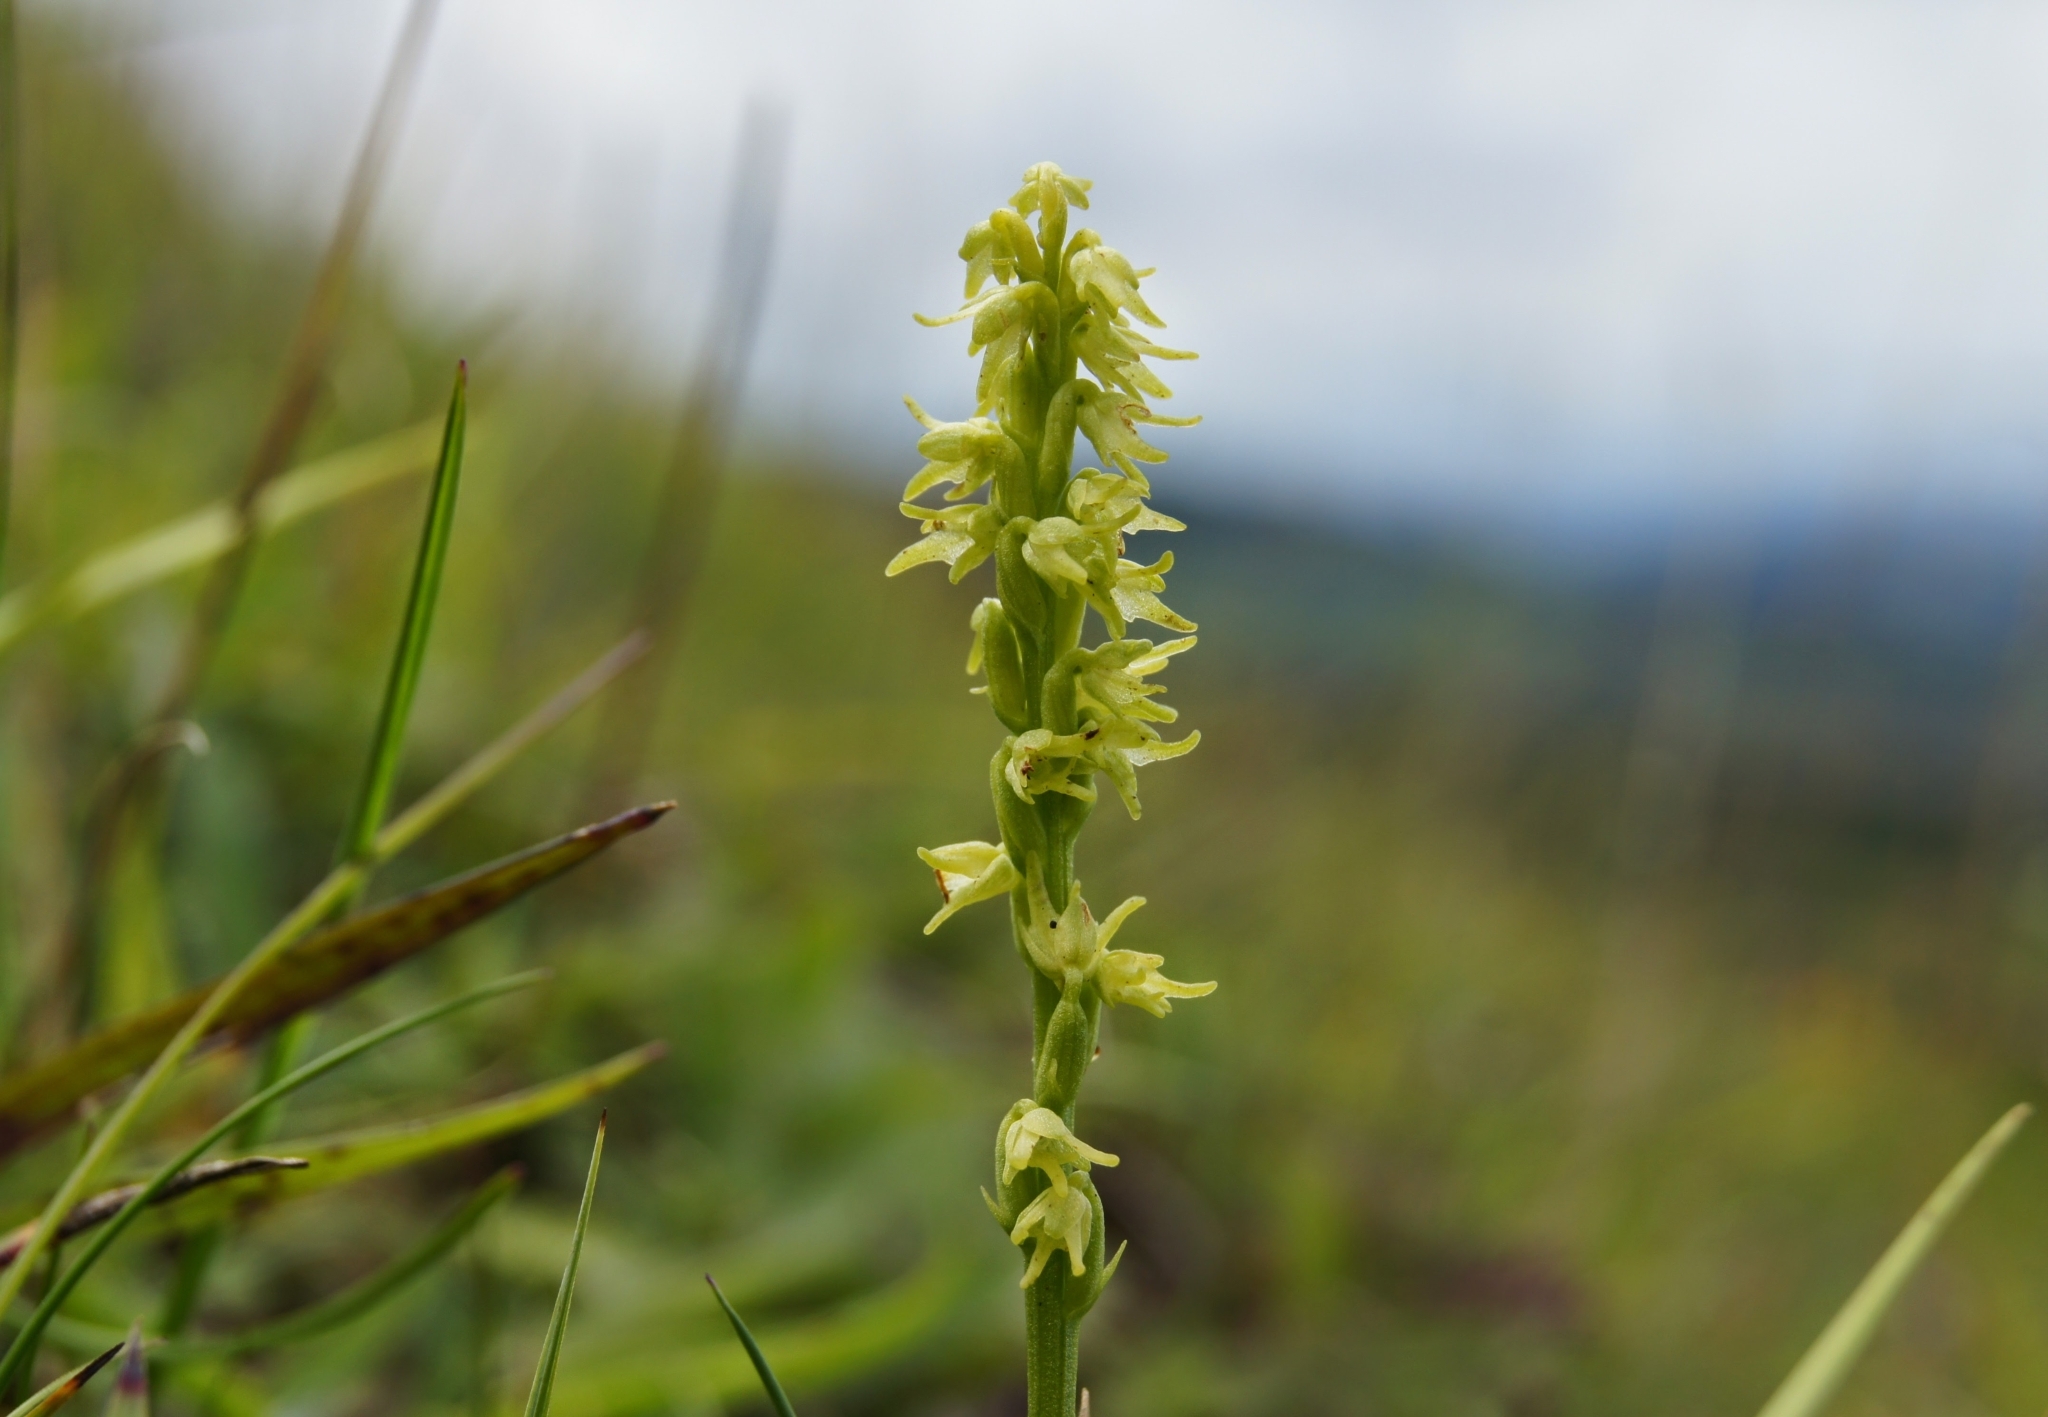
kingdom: Plantae
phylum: Tracheophyta
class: Liliopsida
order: Asparagales
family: Orchidaceae
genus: Herminium
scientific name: Herminium monorchis
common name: Musk orchid
